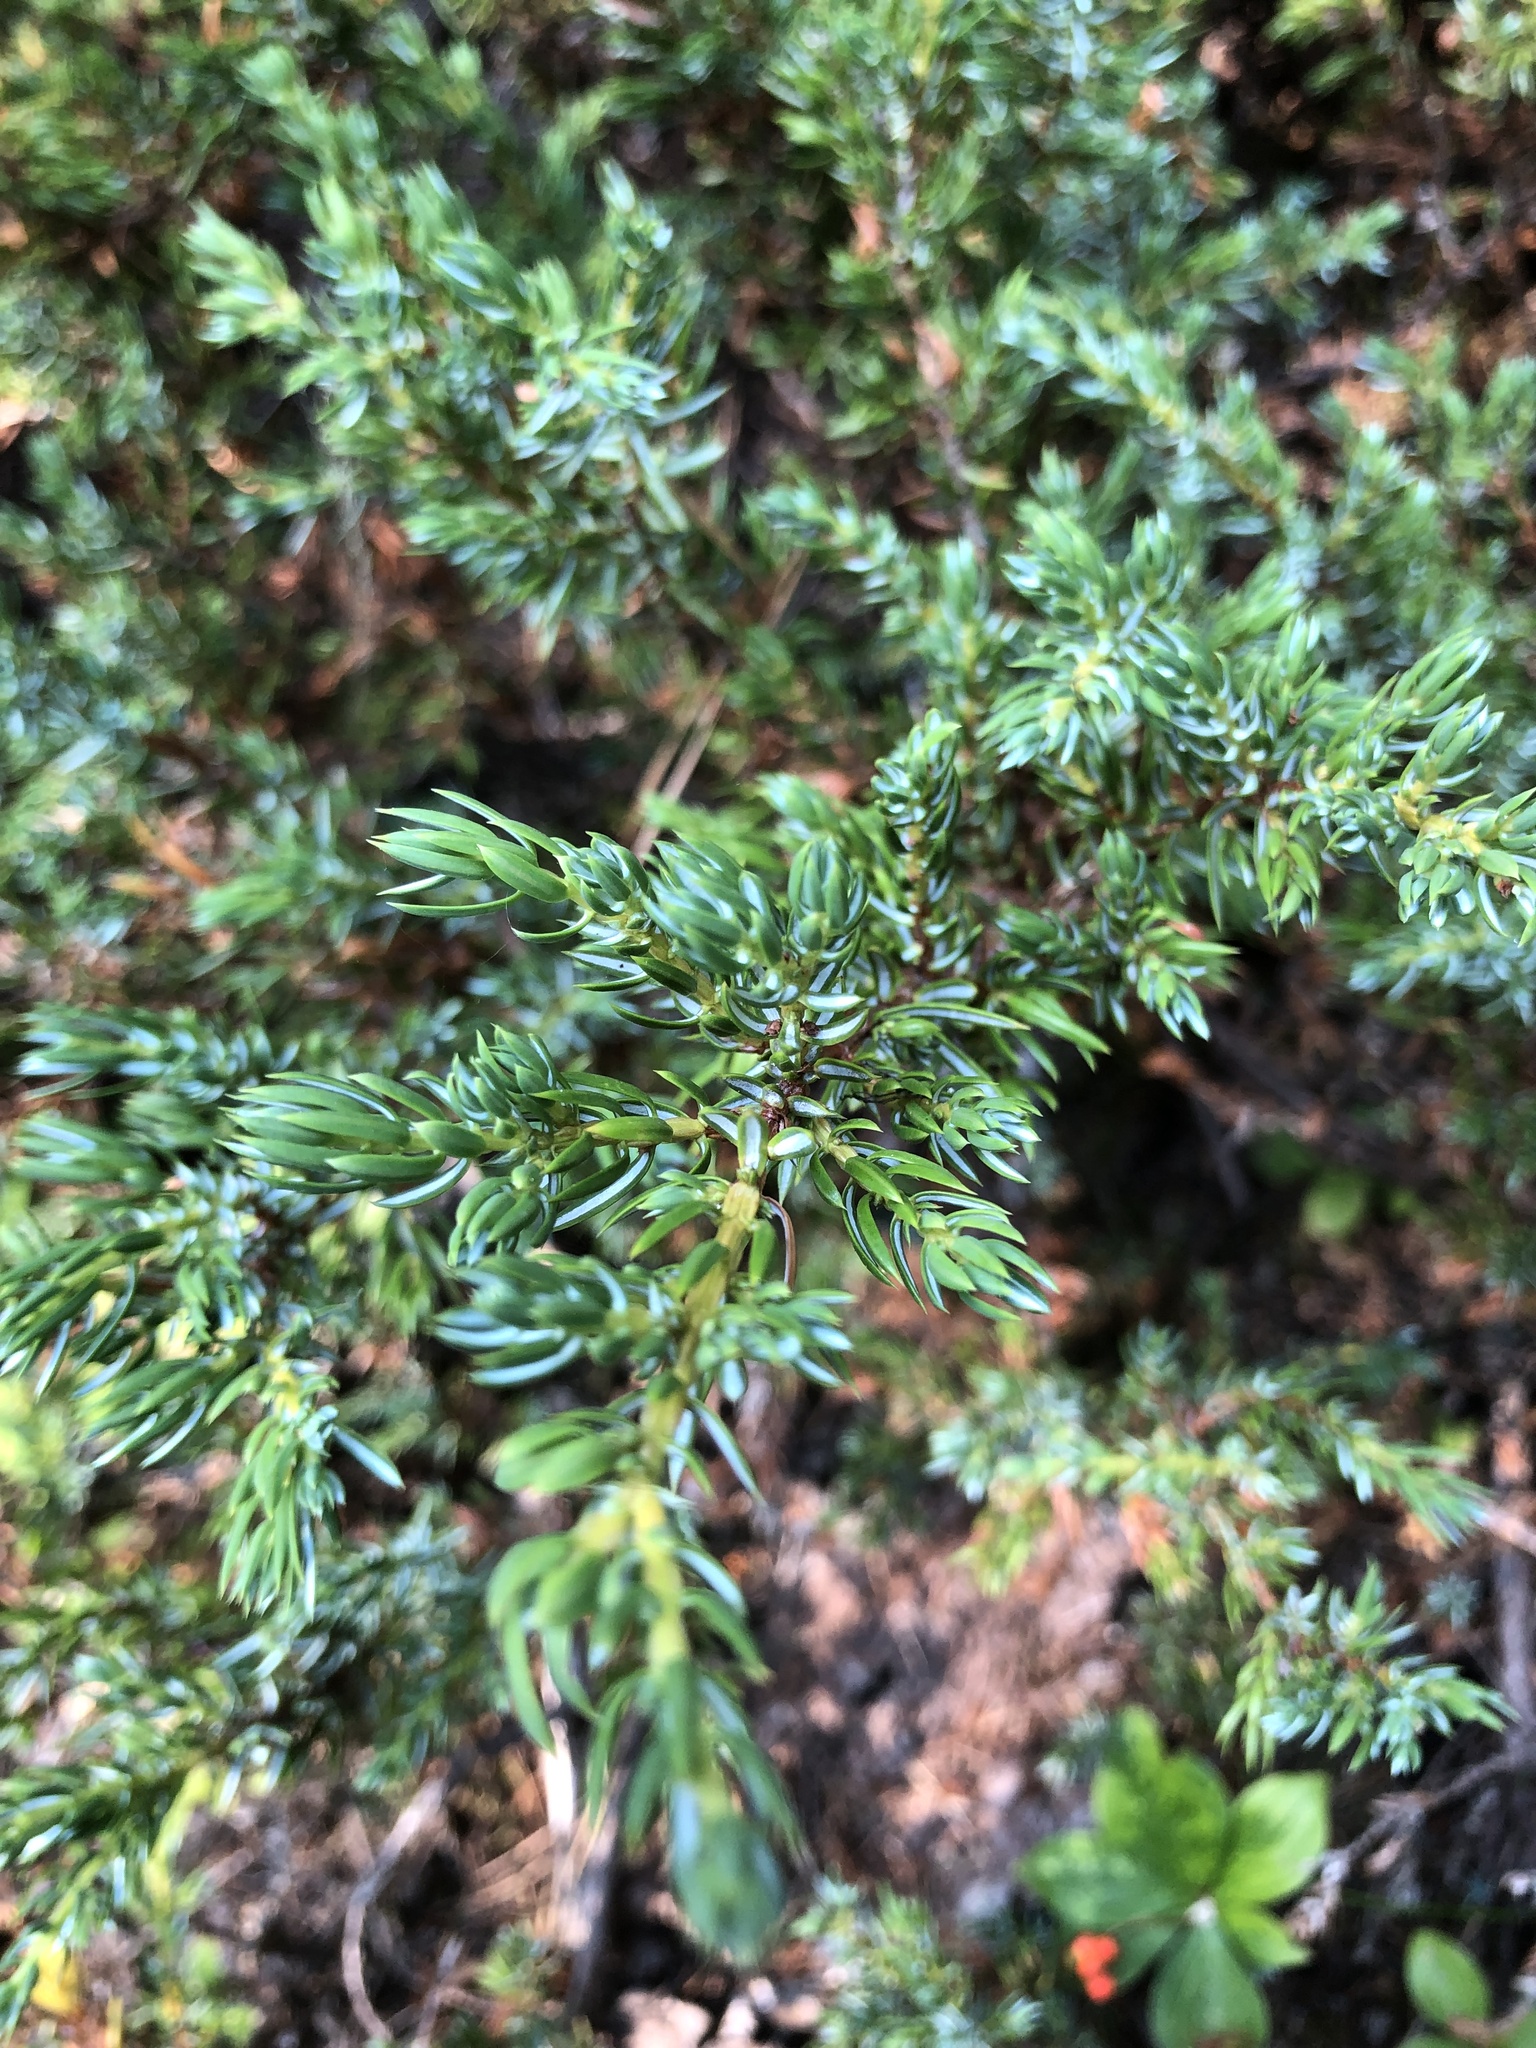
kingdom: Plantae
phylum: Tracheophyta
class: Pinopsida
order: Pinales
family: Cupressaceae
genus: Juniperus
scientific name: Juniperus communis
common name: Common juniper
